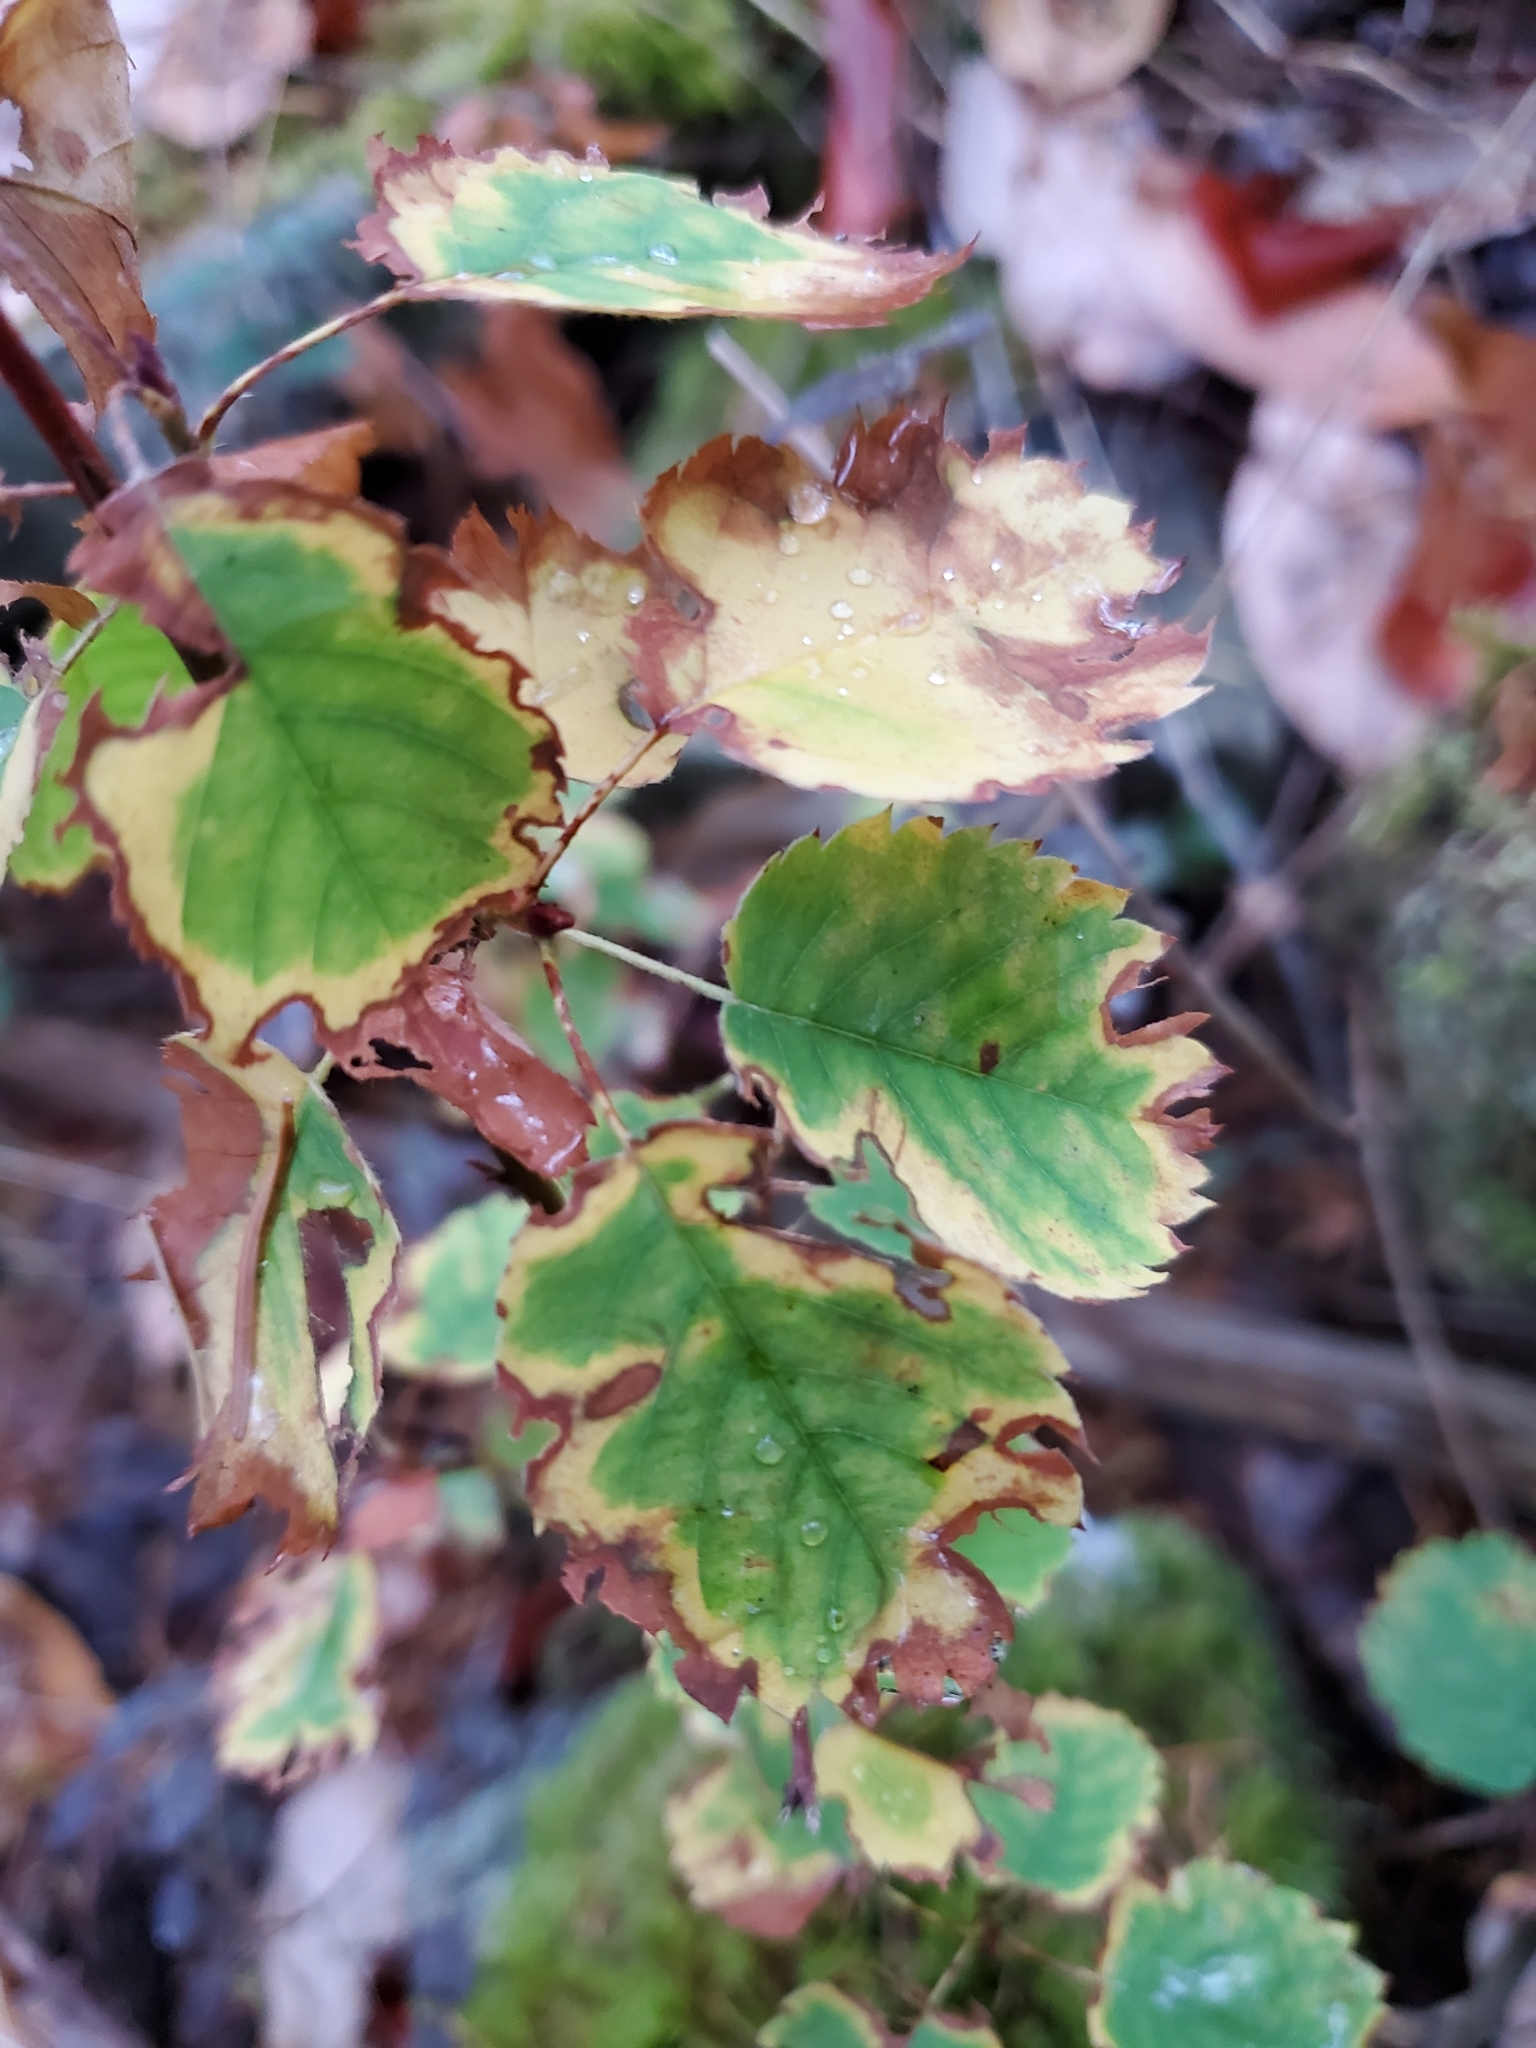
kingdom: Plantae
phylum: Tracheophyta
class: Magnoliopsida
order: Rosales
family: Rosaceae
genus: Amelanchier
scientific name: Amelanchier alnifolia
